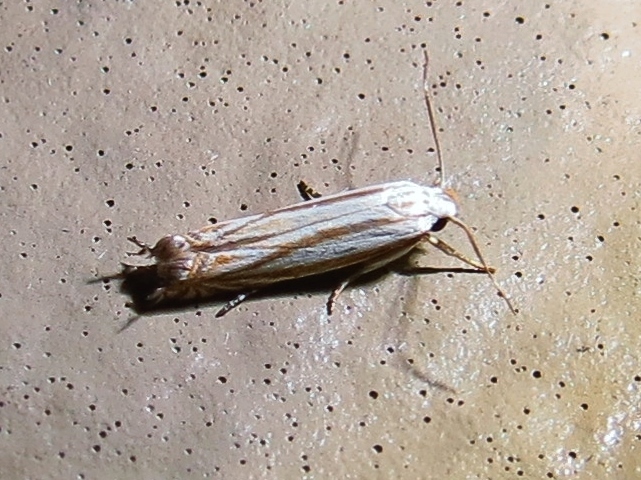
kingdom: Animalia
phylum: Arthropoda
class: Insecta
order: Lepidoptera
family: Gelechiidae
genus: Polyhymno
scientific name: Polyhymno luteostrigella
